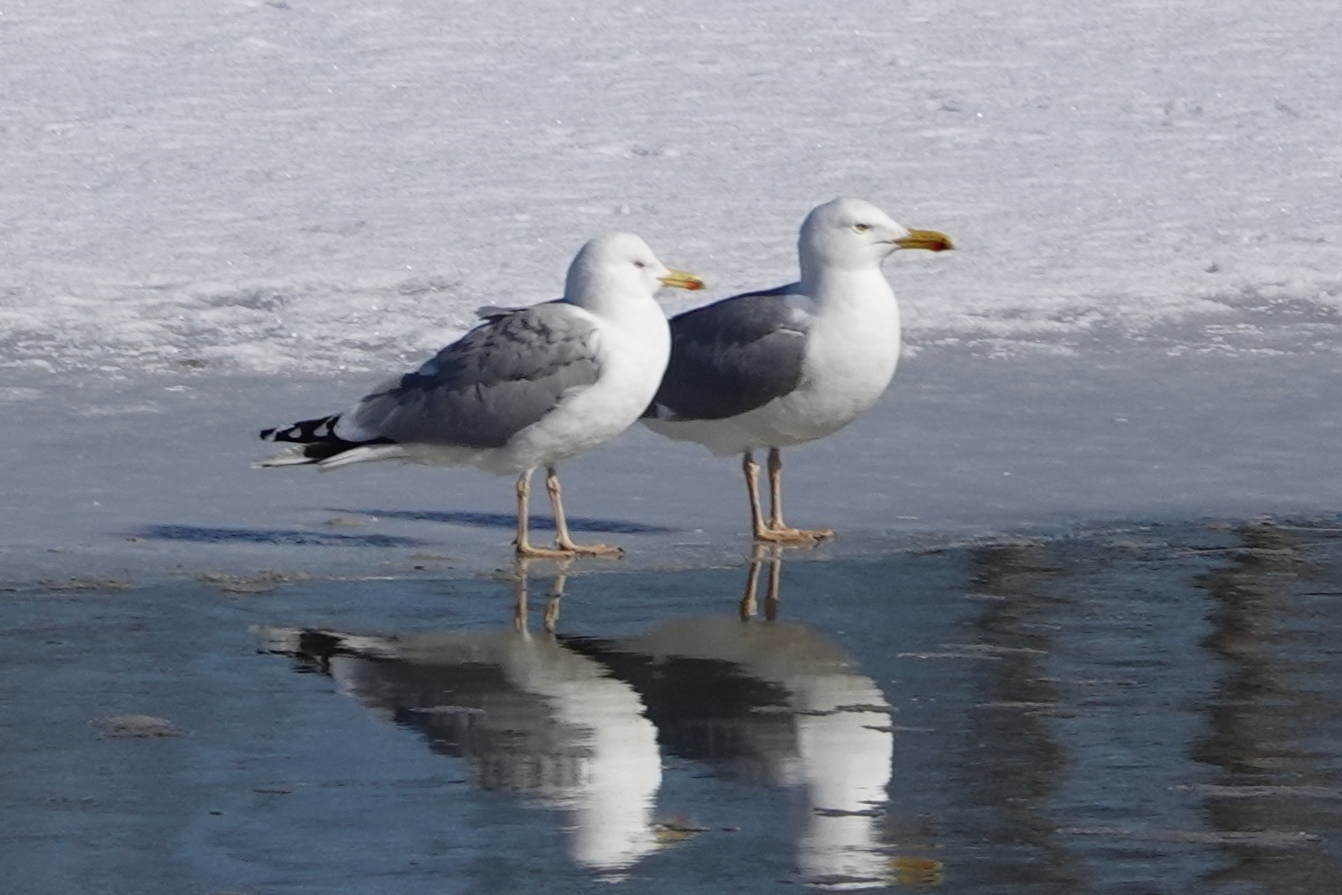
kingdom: Animalia
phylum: Chordata
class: Aves
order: Charadriiformes
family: Laridae
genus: Larus
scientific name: Larus argentatus
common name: Herring gull
